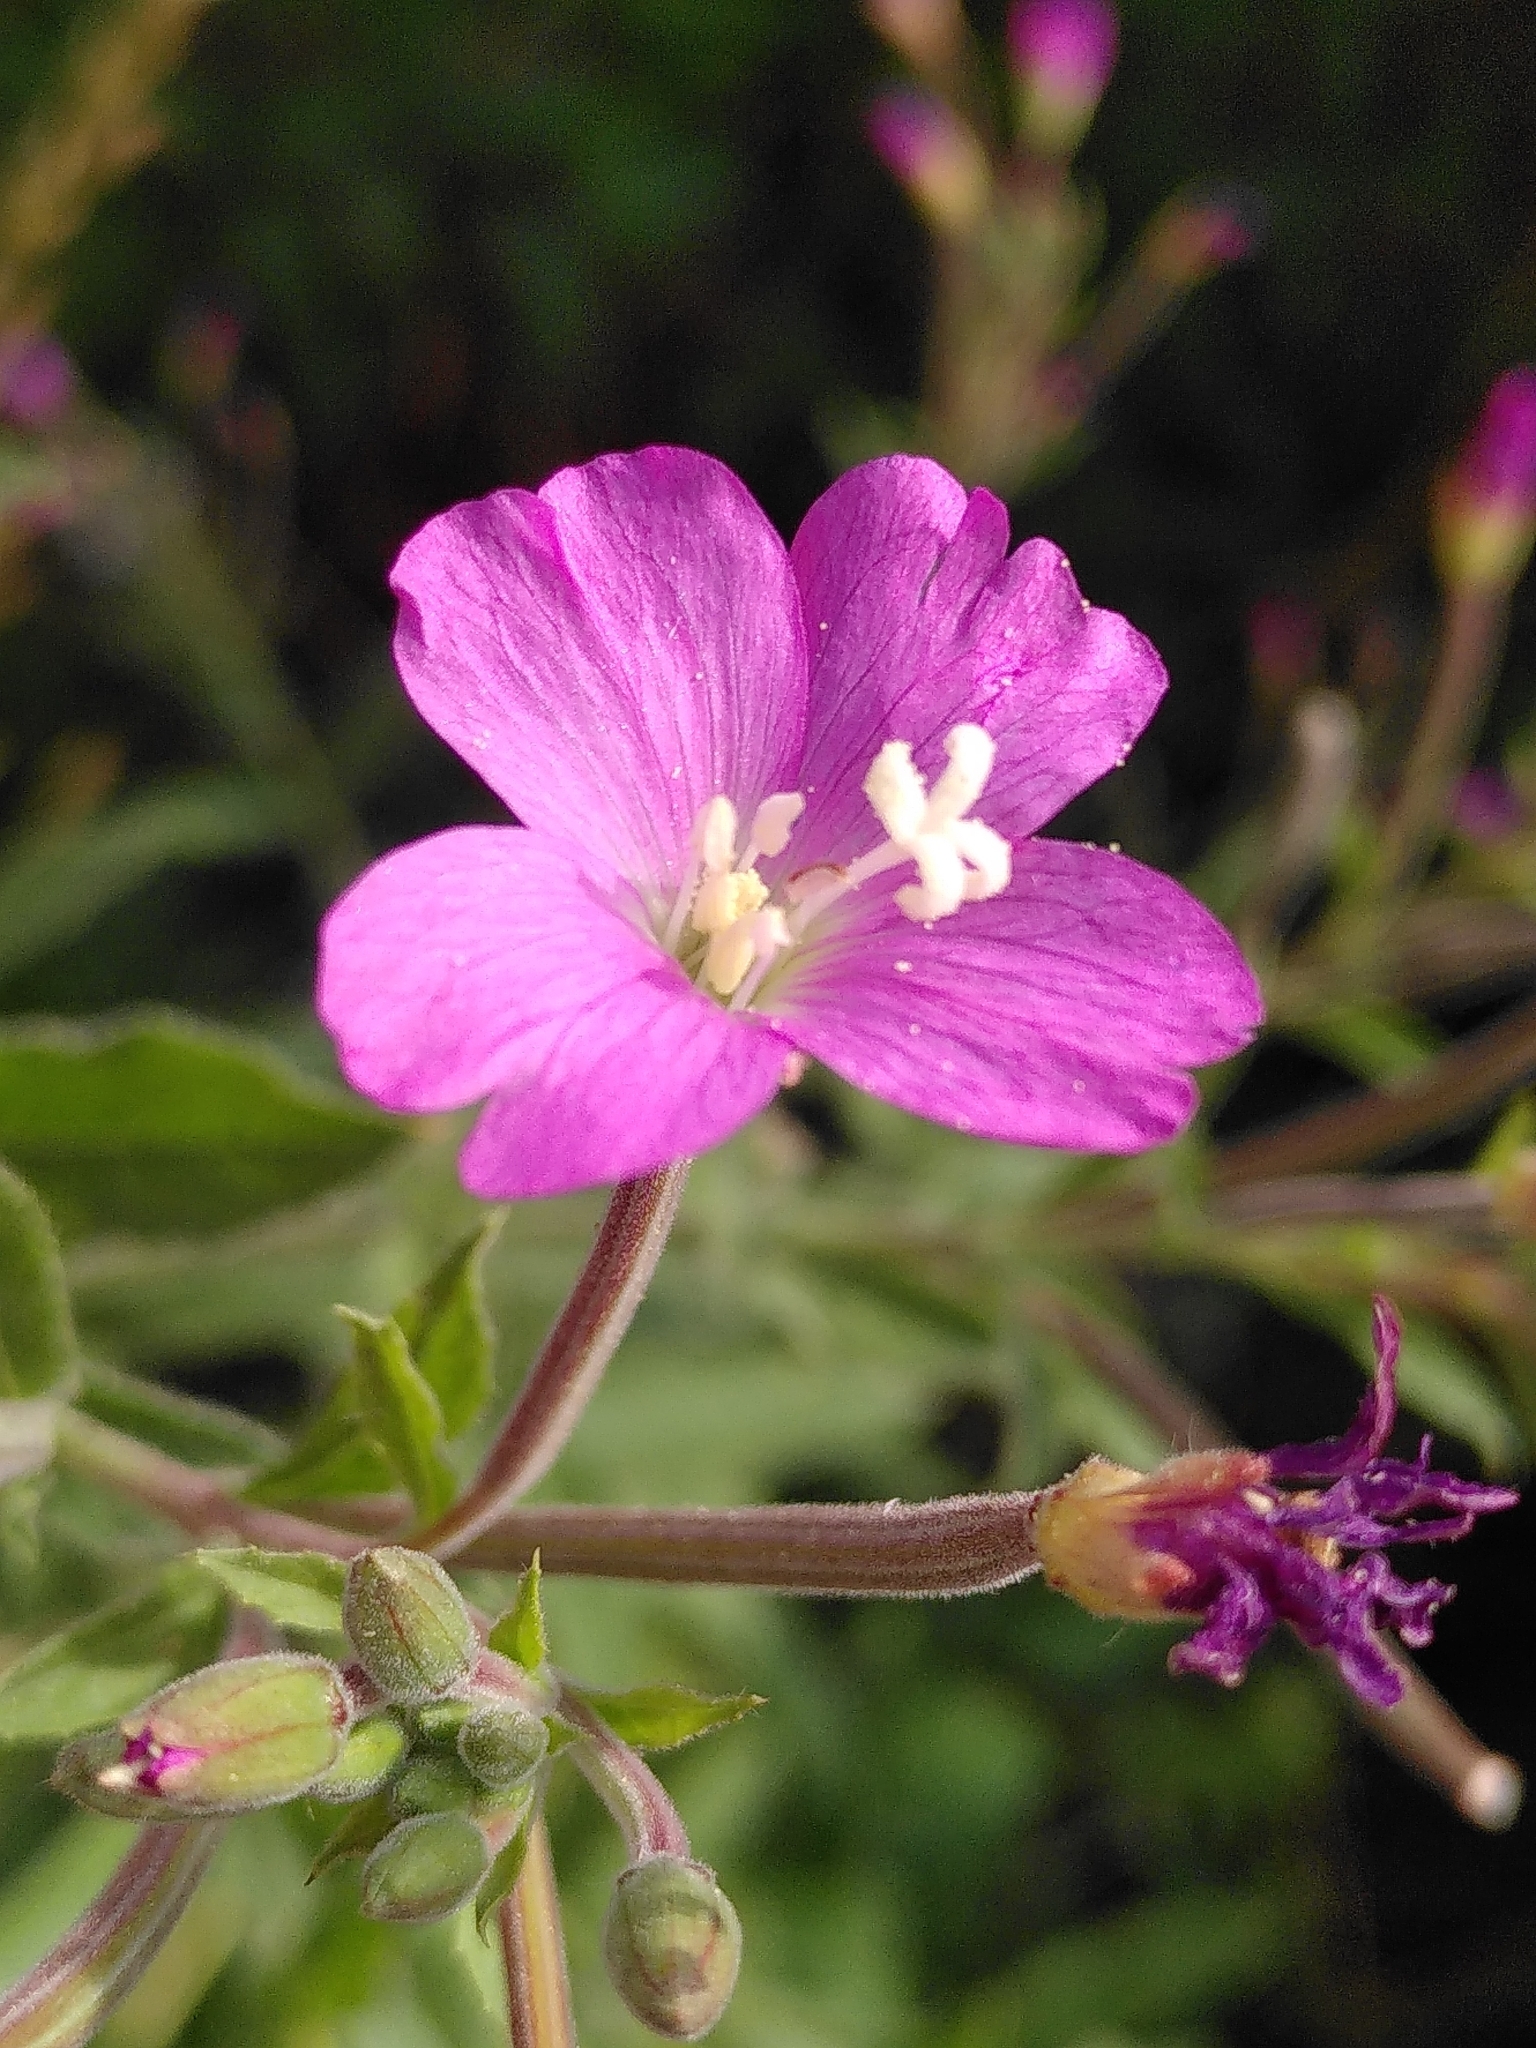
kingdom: Plantae
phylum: Tracheophyta
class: Magnoliopsida
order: Myrtales
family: Onagraceae
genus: Epilobium
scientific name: Epilobium hirsutum
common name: Great willowherb
